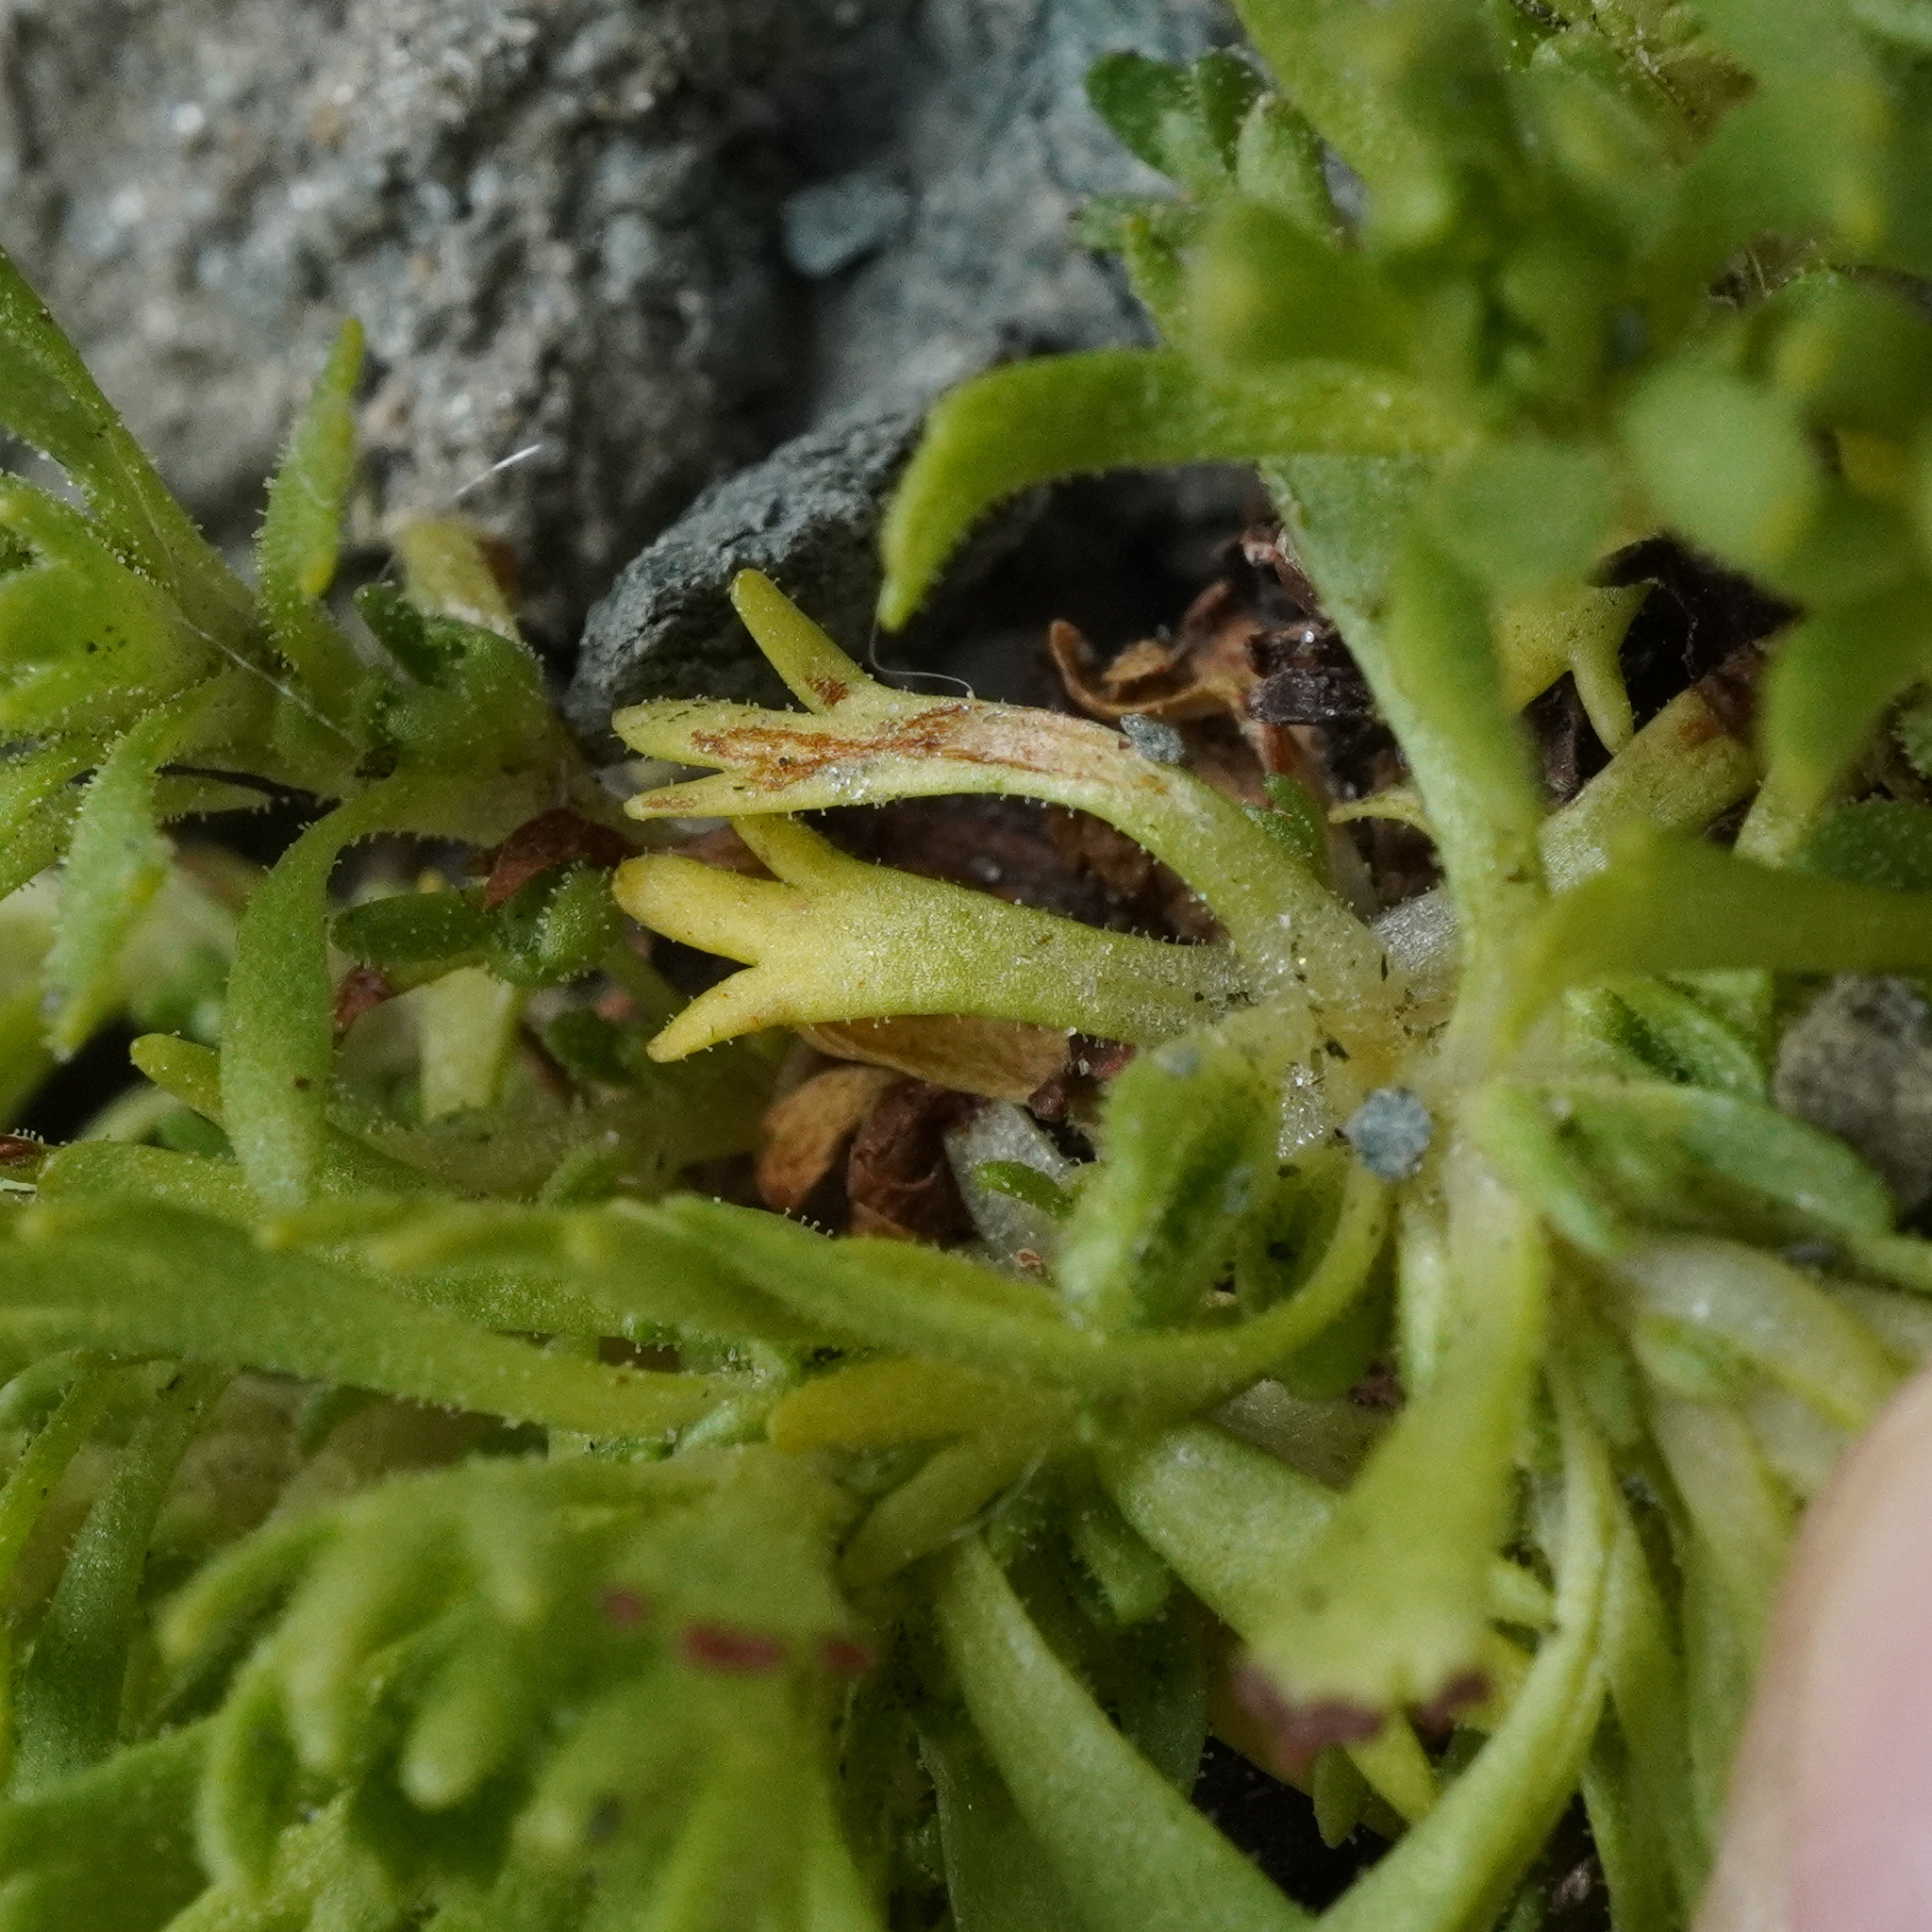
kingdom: Plantae
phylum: Tracheophyta
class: Magnoliopsida
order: Saxifragales
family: Saxifragaceae
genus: Saxifraga
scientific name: Saxifraga moschata
